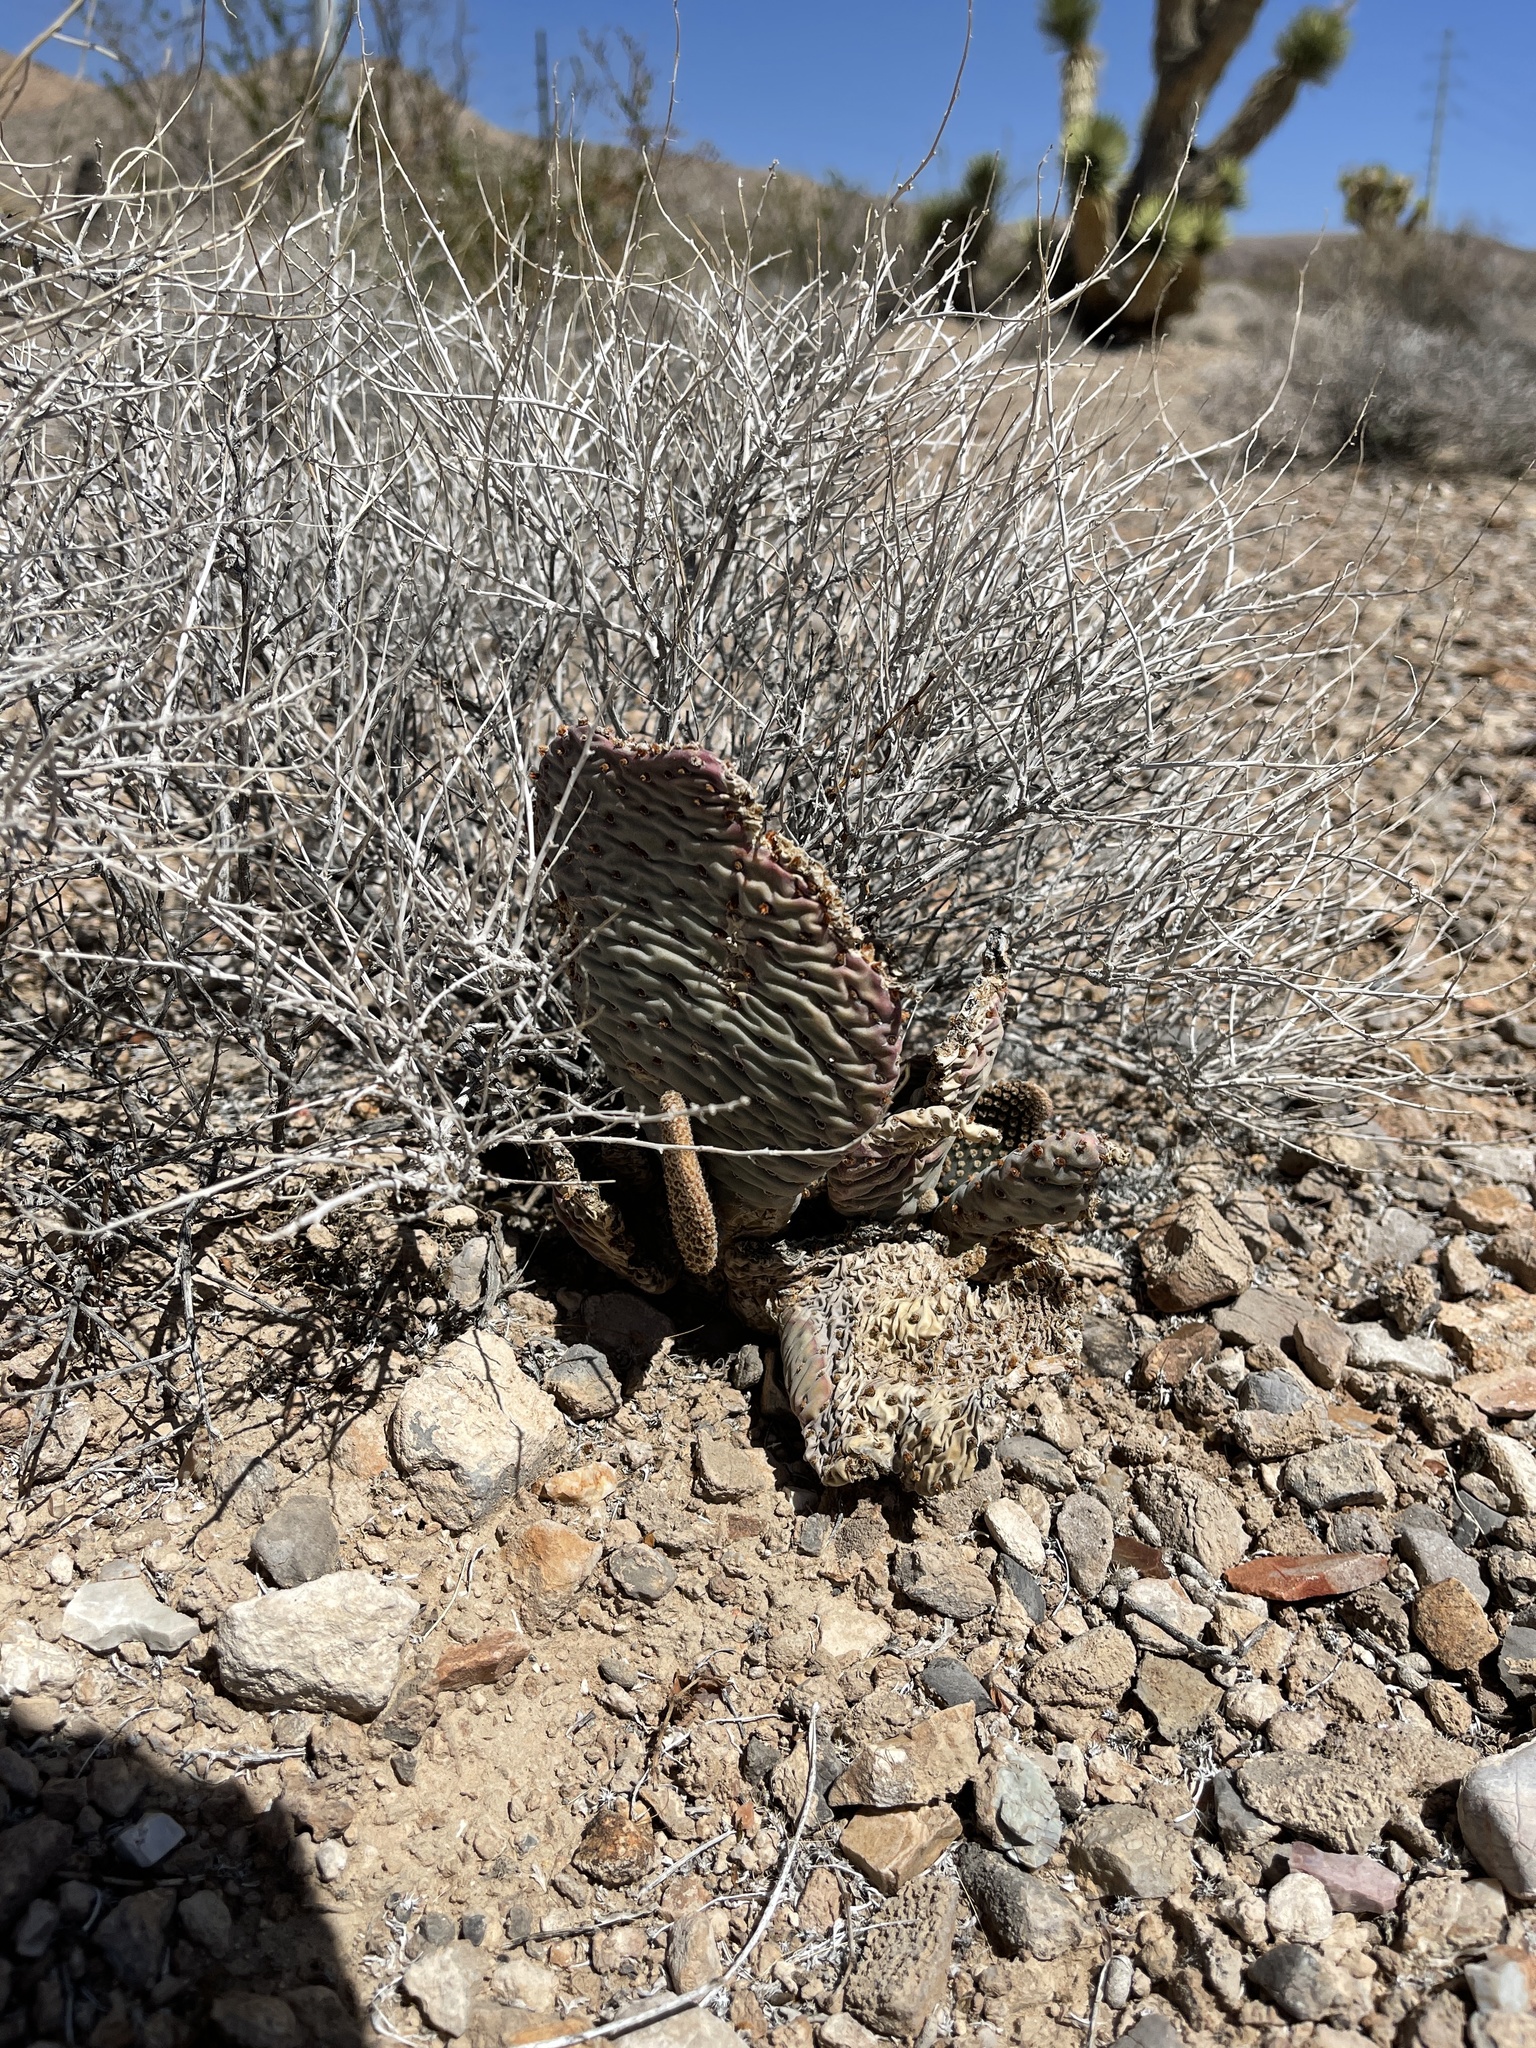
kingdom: Plantae
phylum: Tracheophyta
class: Magnoliopsida
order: Caryophyllales
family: Cactaceae
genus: Opuntia
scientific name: Opuntia basilaris
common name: Beavertail prickly-pear
